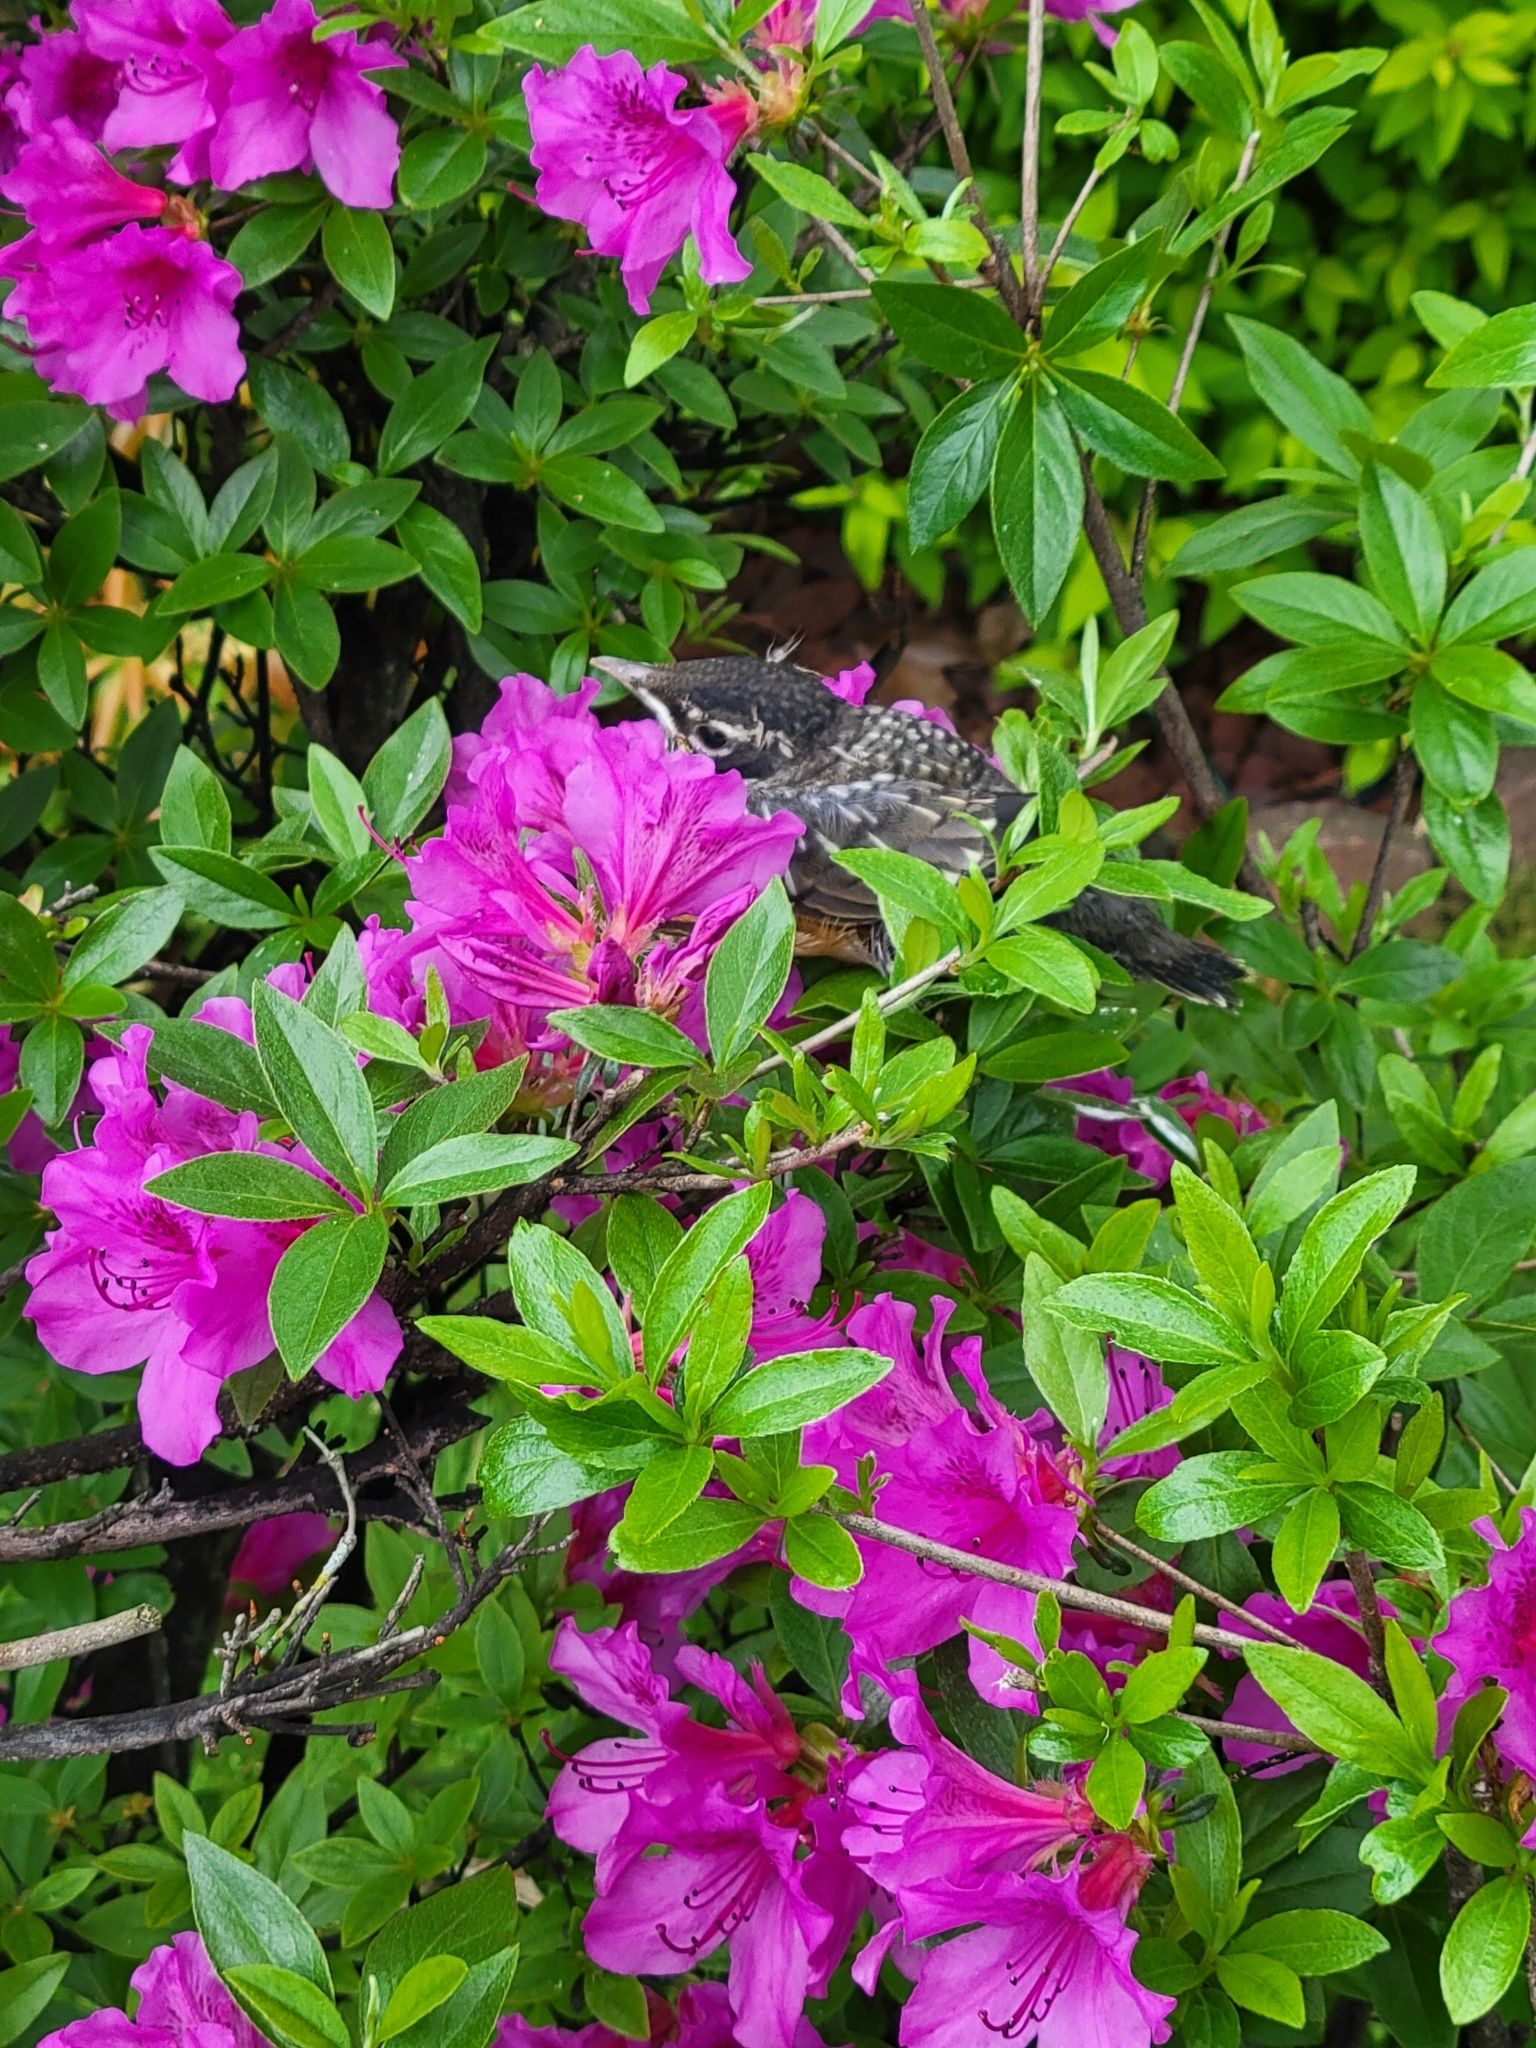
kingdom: Animalia
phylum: Chordata
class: Aves
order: Passeriformes
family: Turdidae
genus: Turdus
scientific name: Turdus migratorius
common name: American robin
